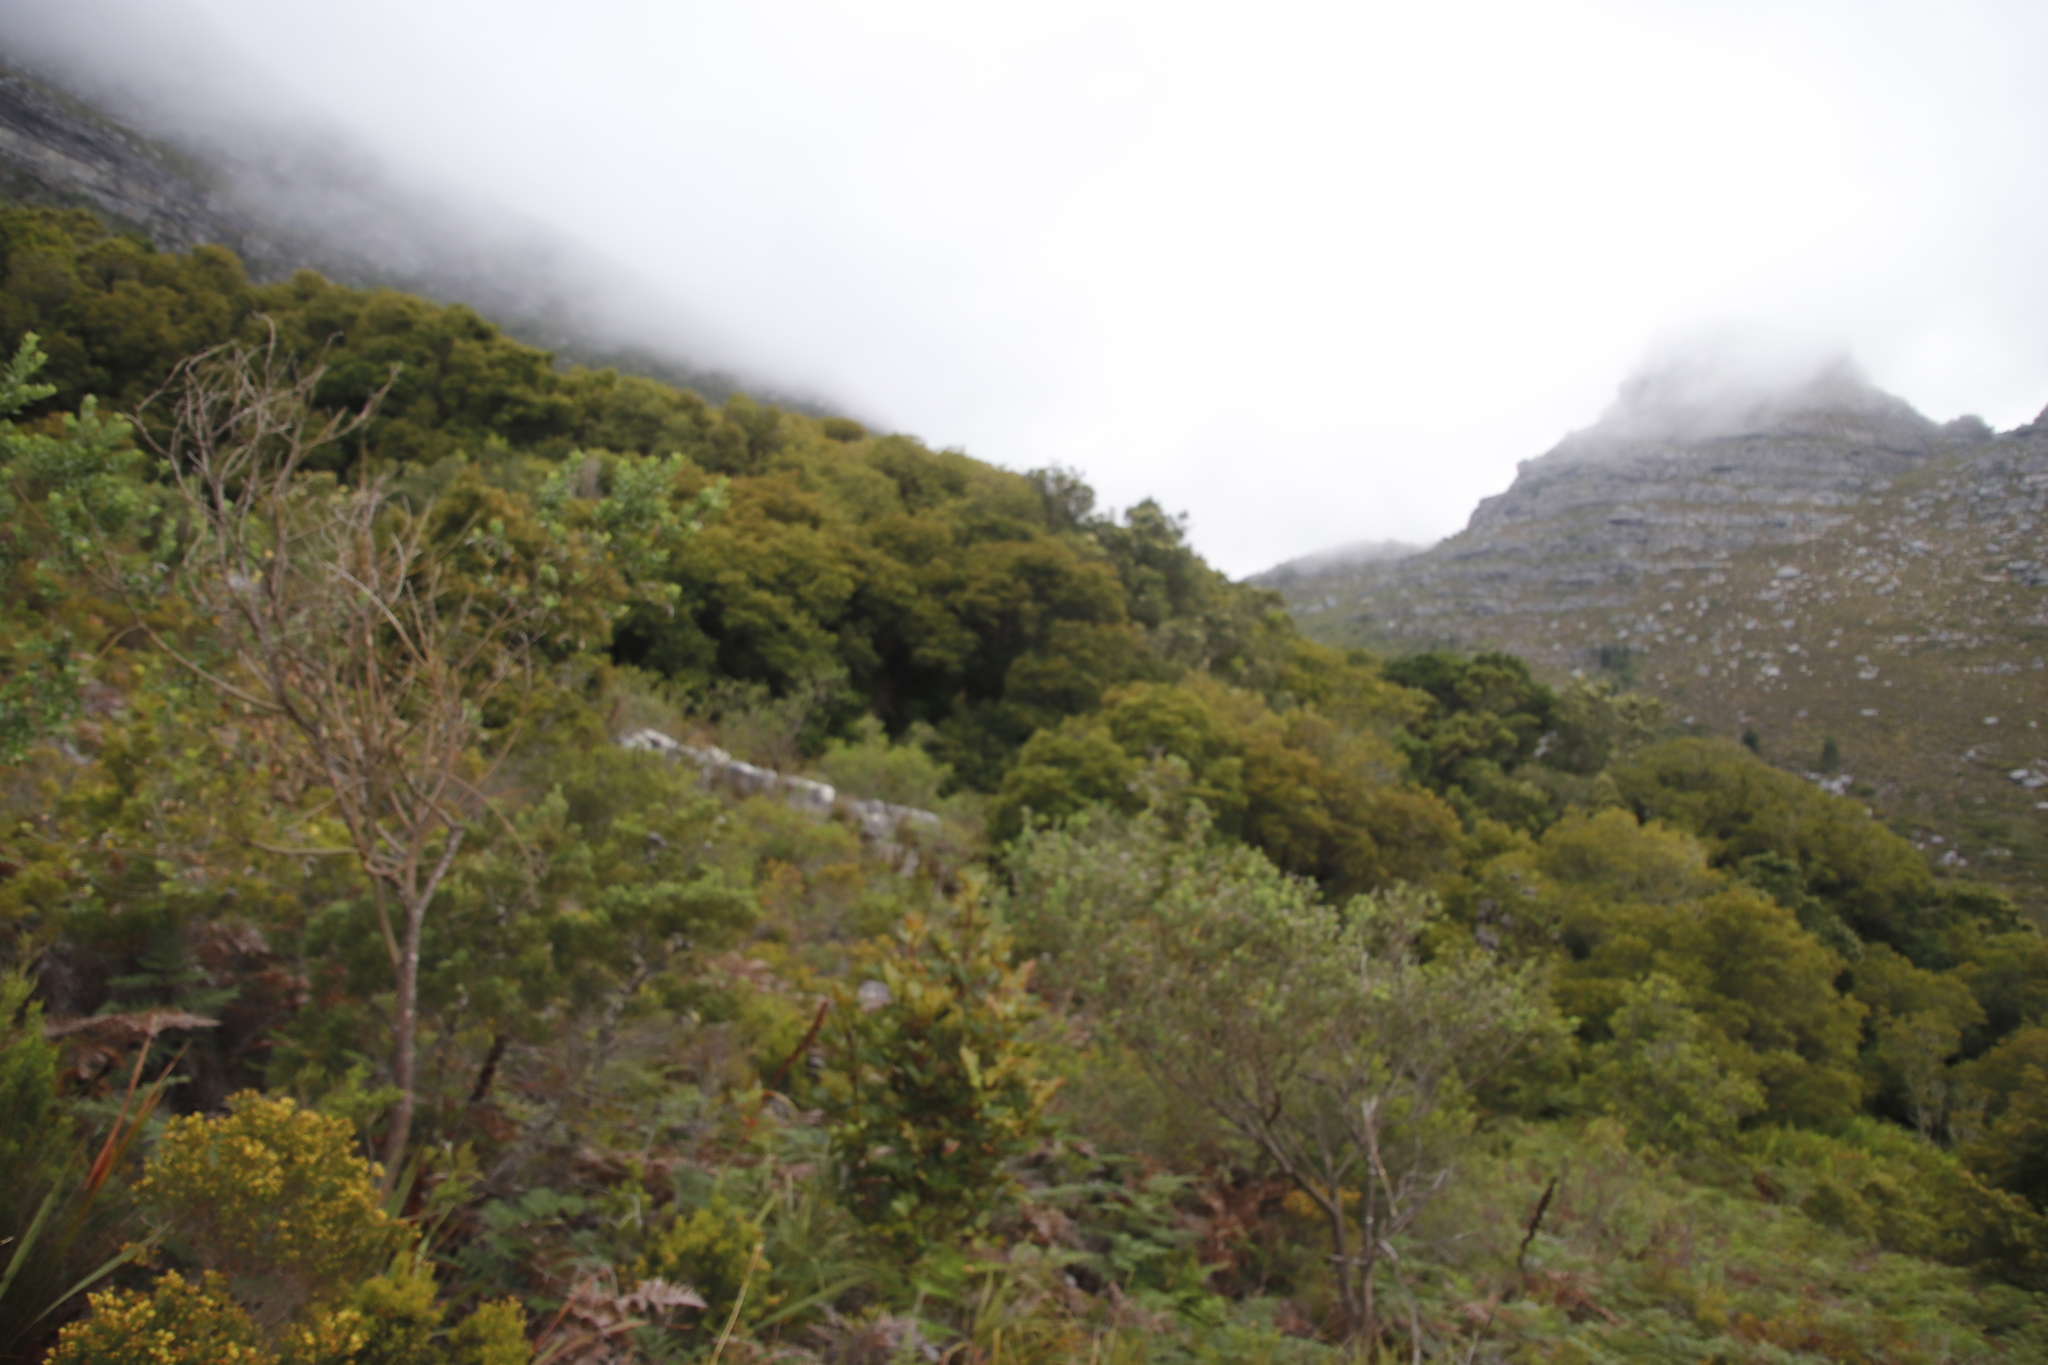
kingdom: Plantae
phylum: Tracheophyta
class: Magnoliopsida
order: Oxalidales
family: Cunoniaceae
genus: Cunonia
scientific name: Cunonia capensis
